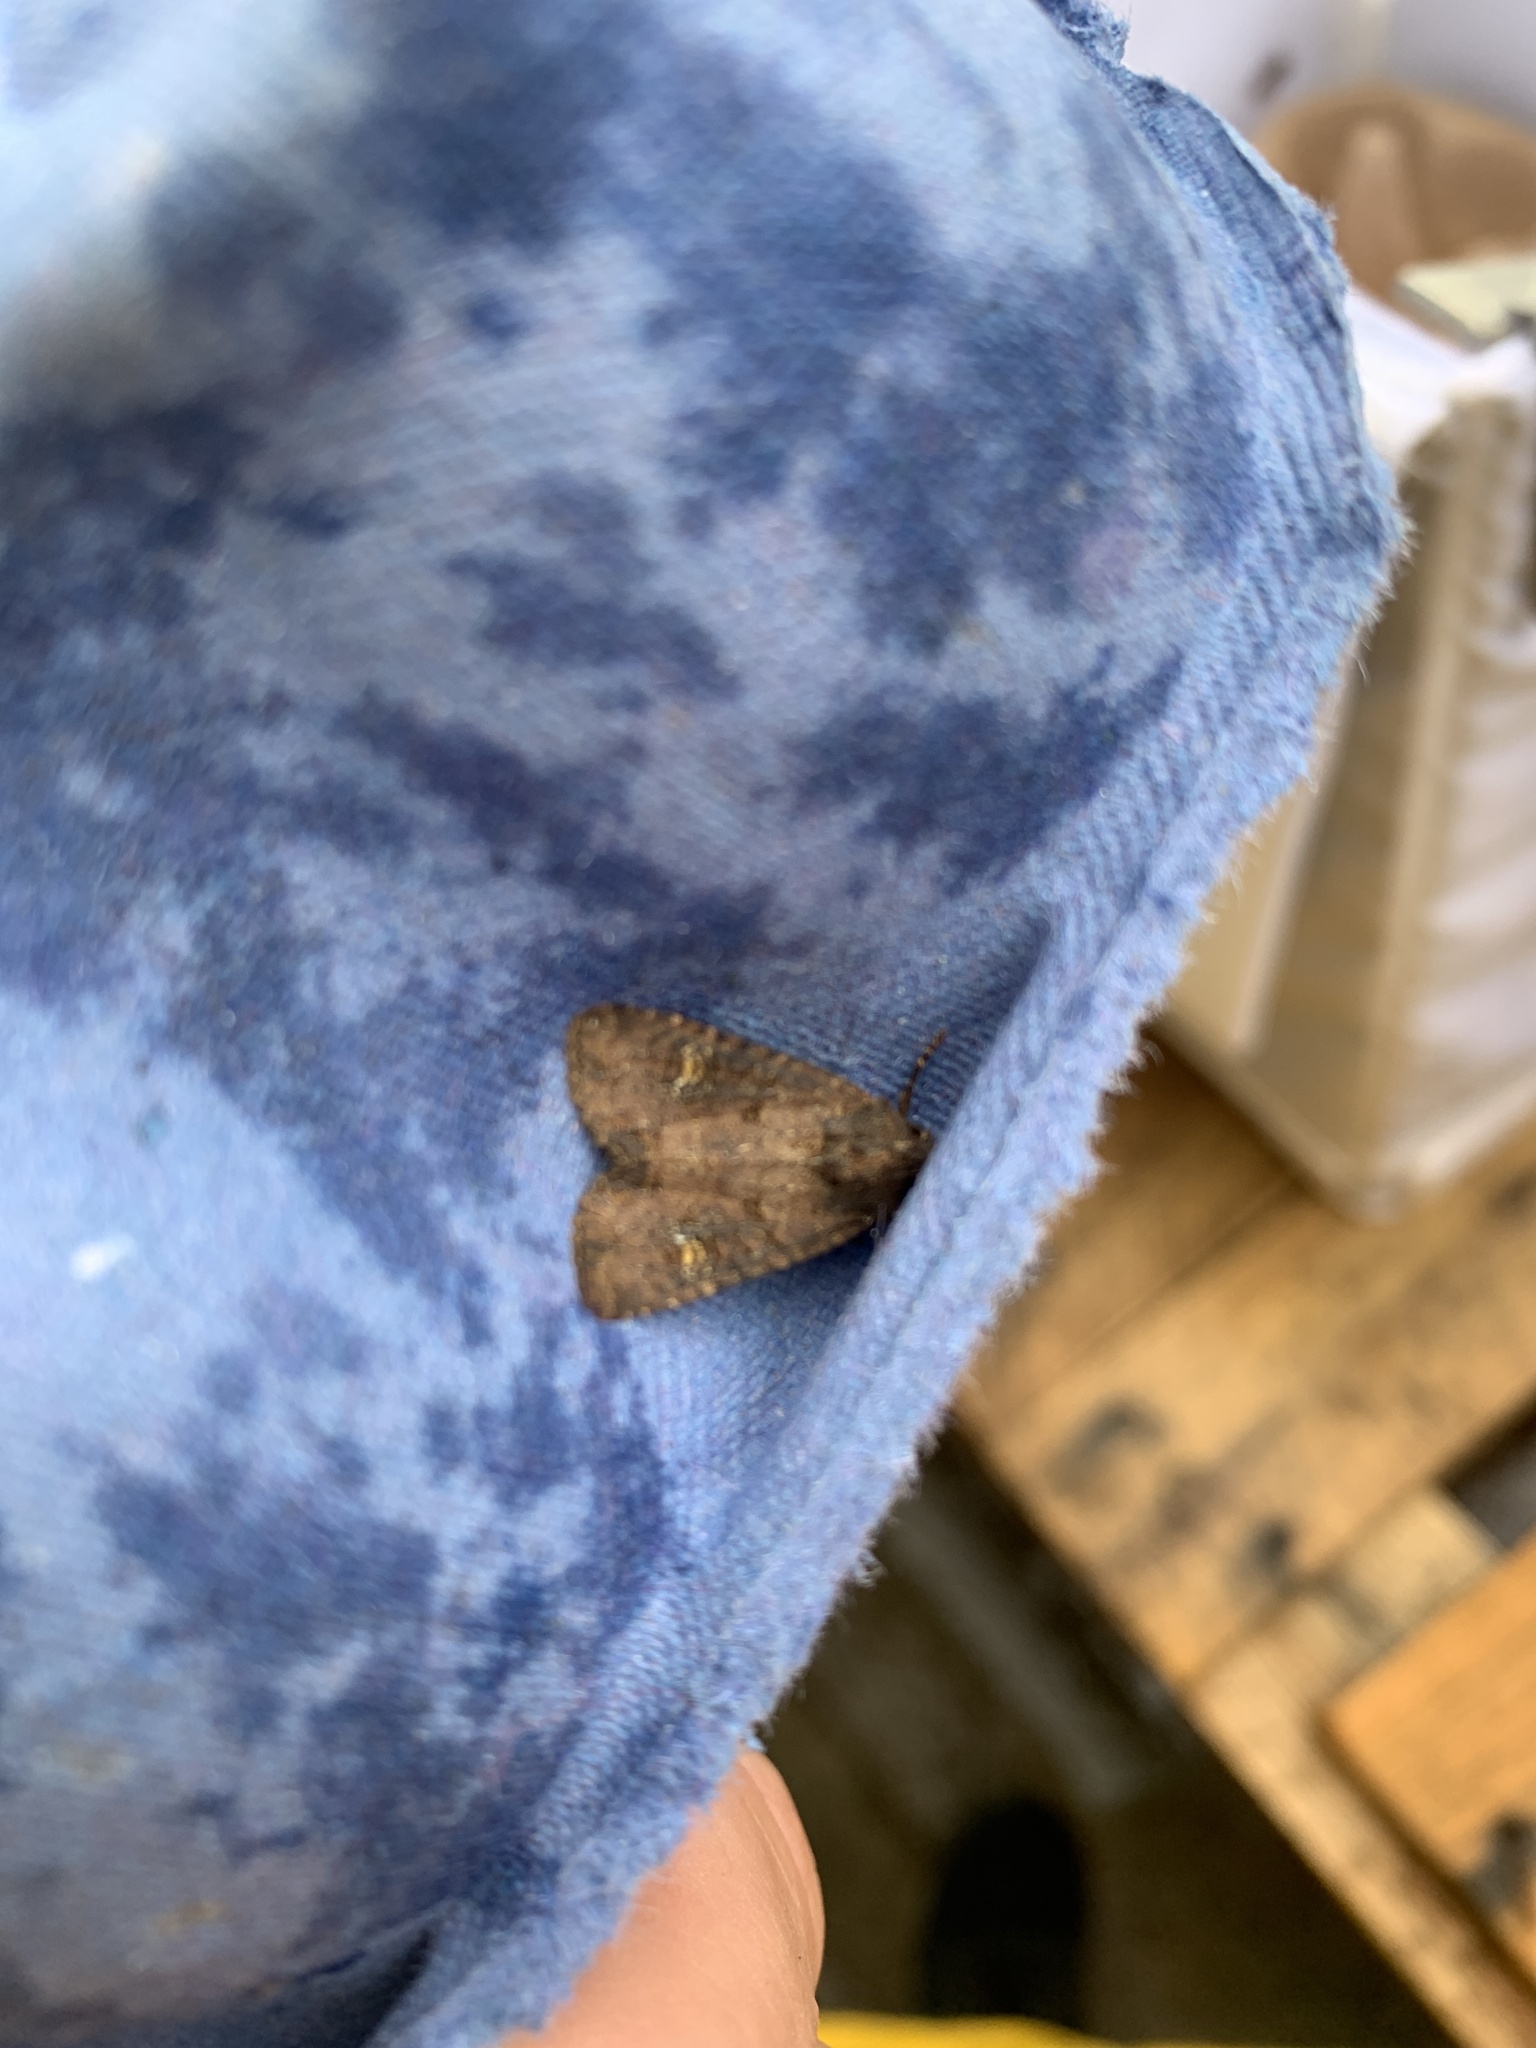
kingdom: Animalia
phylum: Arthropoda
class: Insecta
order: Lepidoptera
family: Noctuidae
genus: Mesapamea
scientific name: Mesapamea secalis
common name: Common rustic
